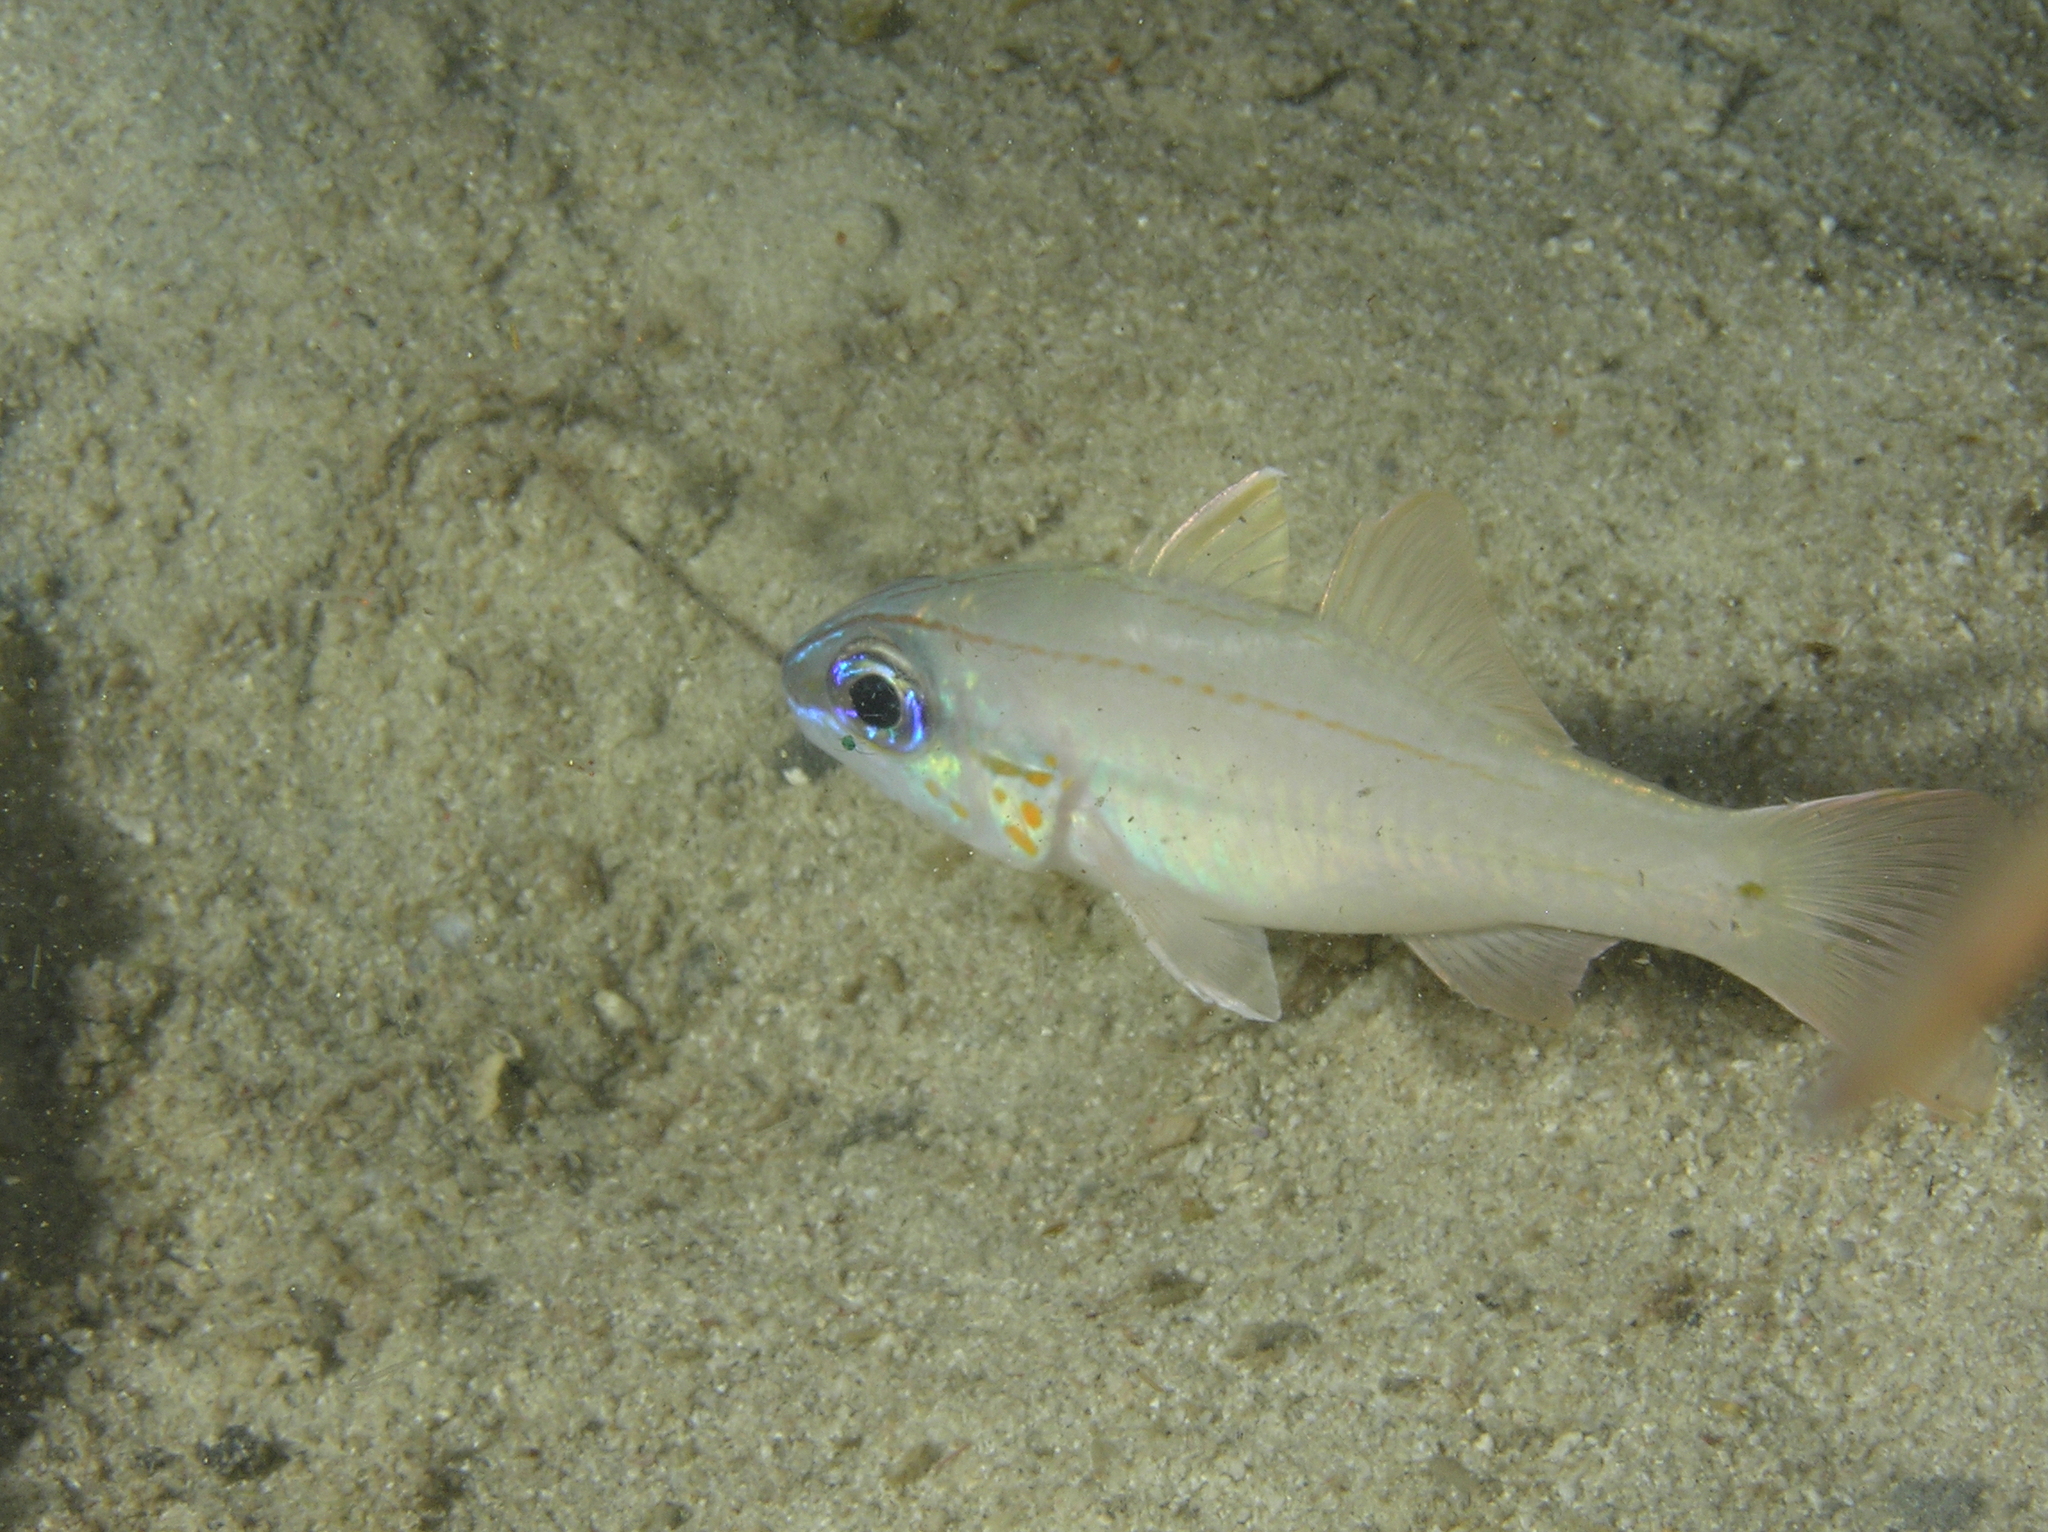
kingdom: Animalia
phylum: Chordata
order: Perciformes
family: Apogonidae
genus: Ostorhinchus
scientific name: Ostorhinchus chrysopomus
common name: Cheek-spot cardinalfish
